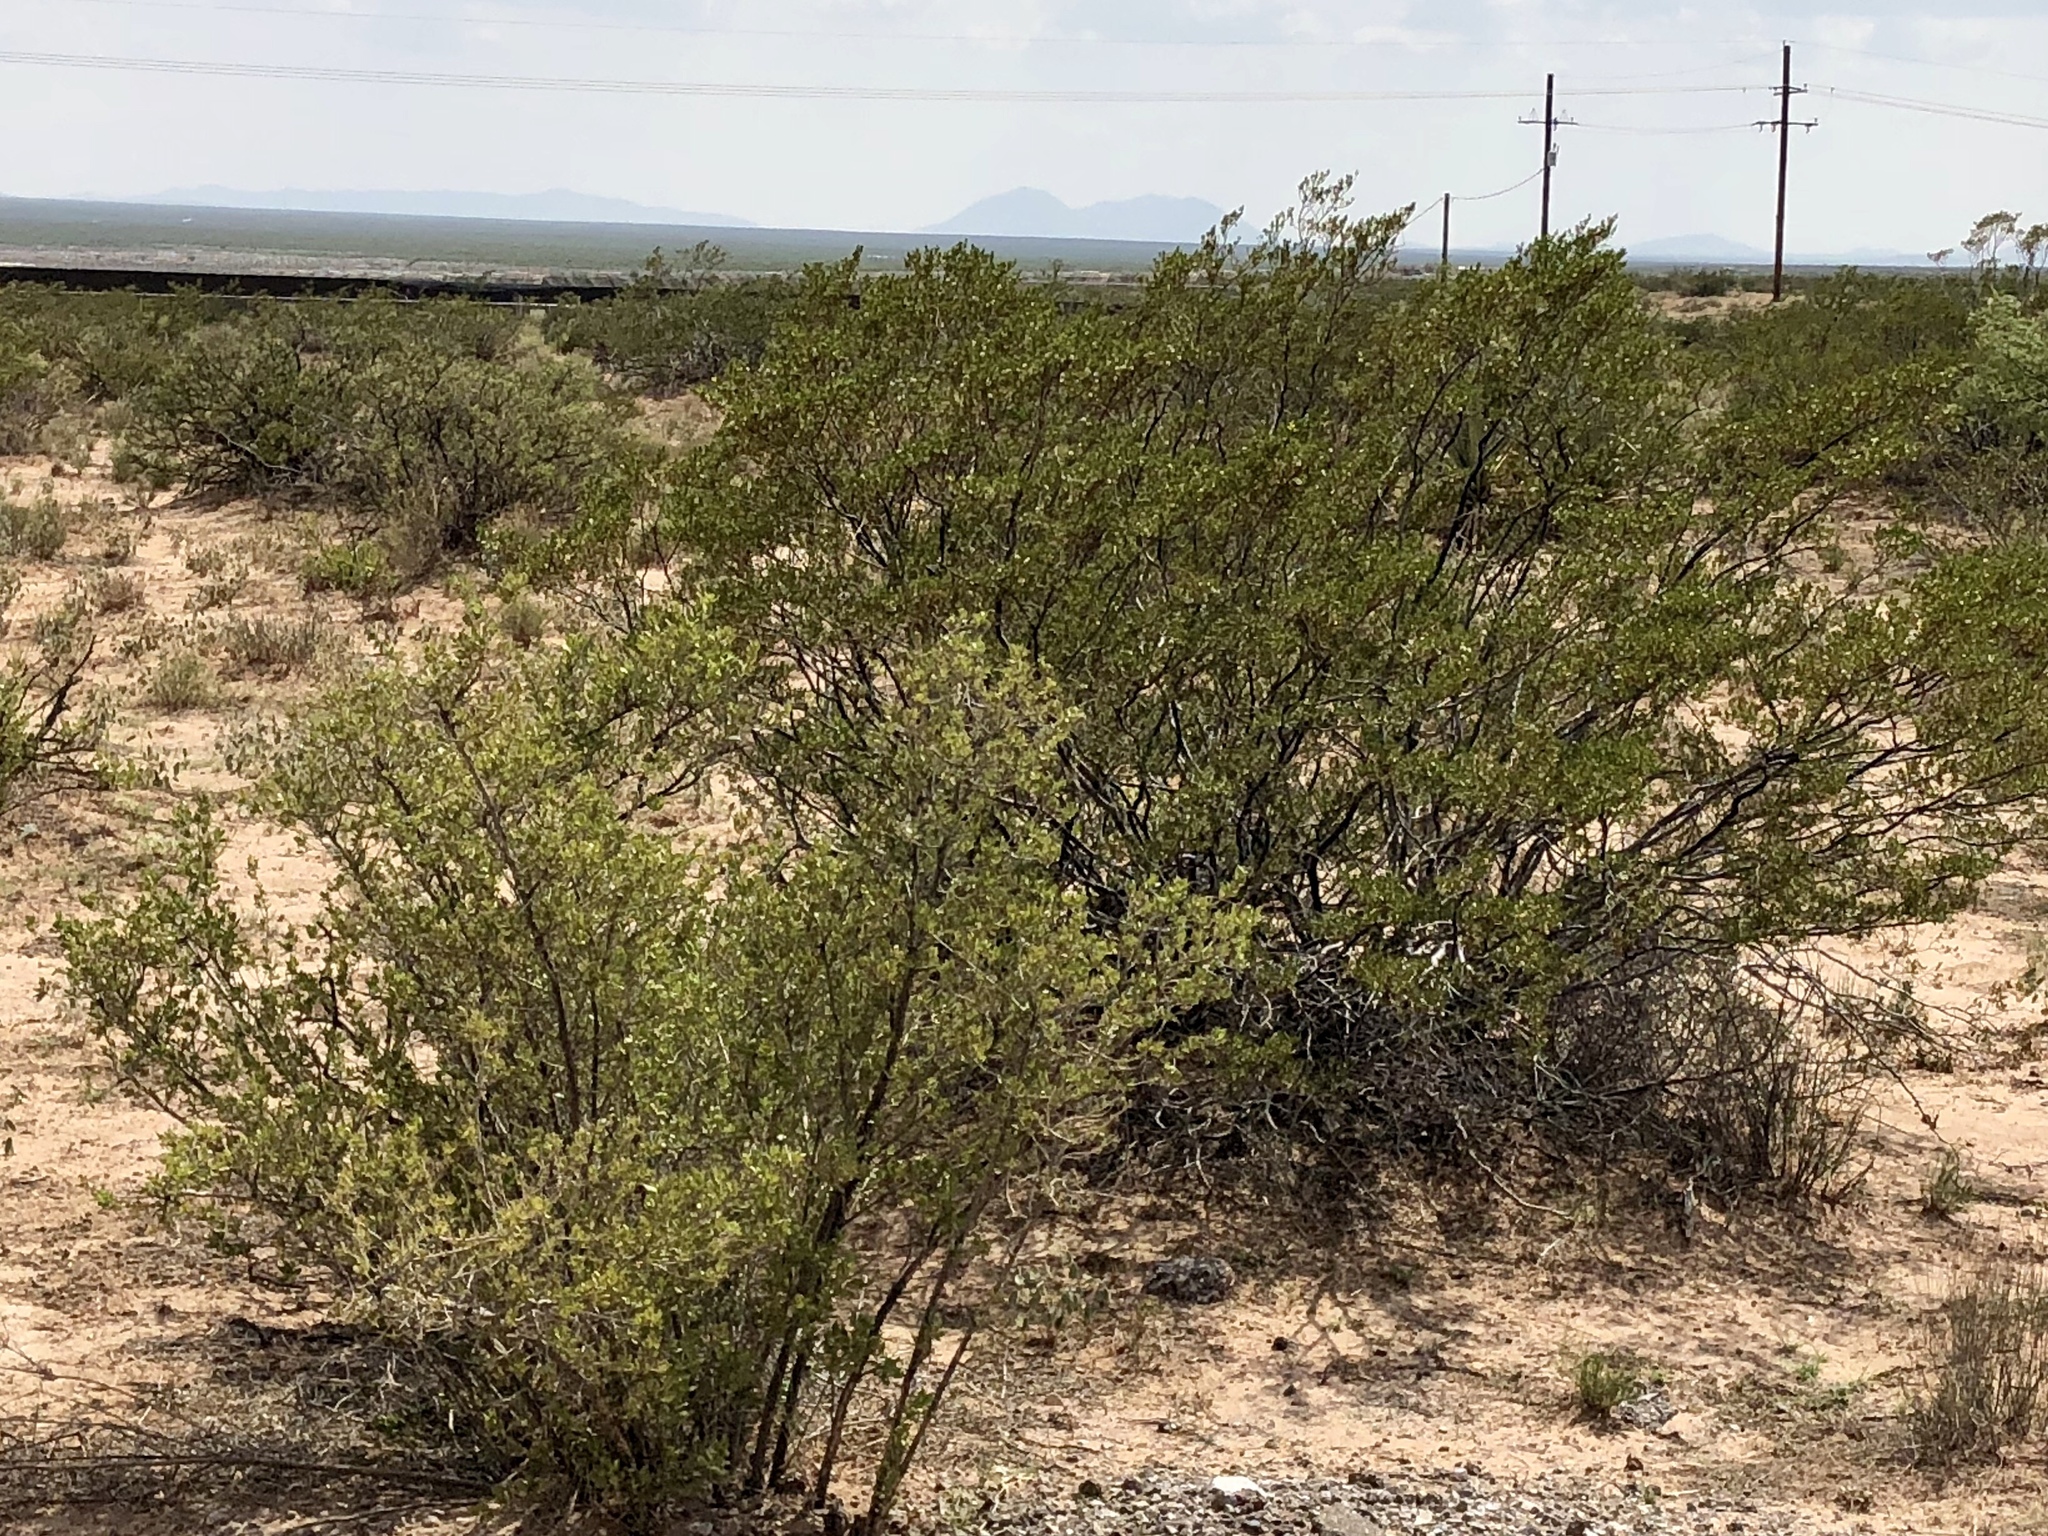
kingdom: Plantae
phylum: Tracheophyta
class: Magnoliopsida
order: Zygophyllales
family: Zygophyllaceae
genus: Larrea
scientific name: Larrea tridentata
